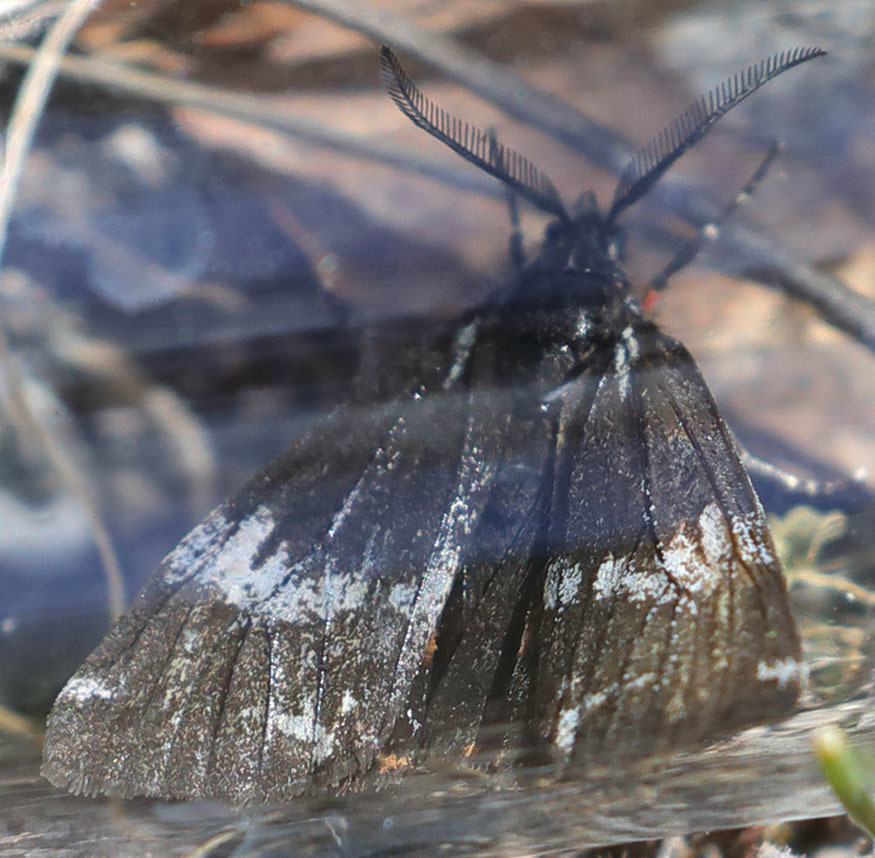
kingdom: Animalia
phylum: Arthropoda
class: Insecta
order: Lepidoptera
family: Erebidae
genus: Leptarctia
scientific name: Leptarctia californiae
